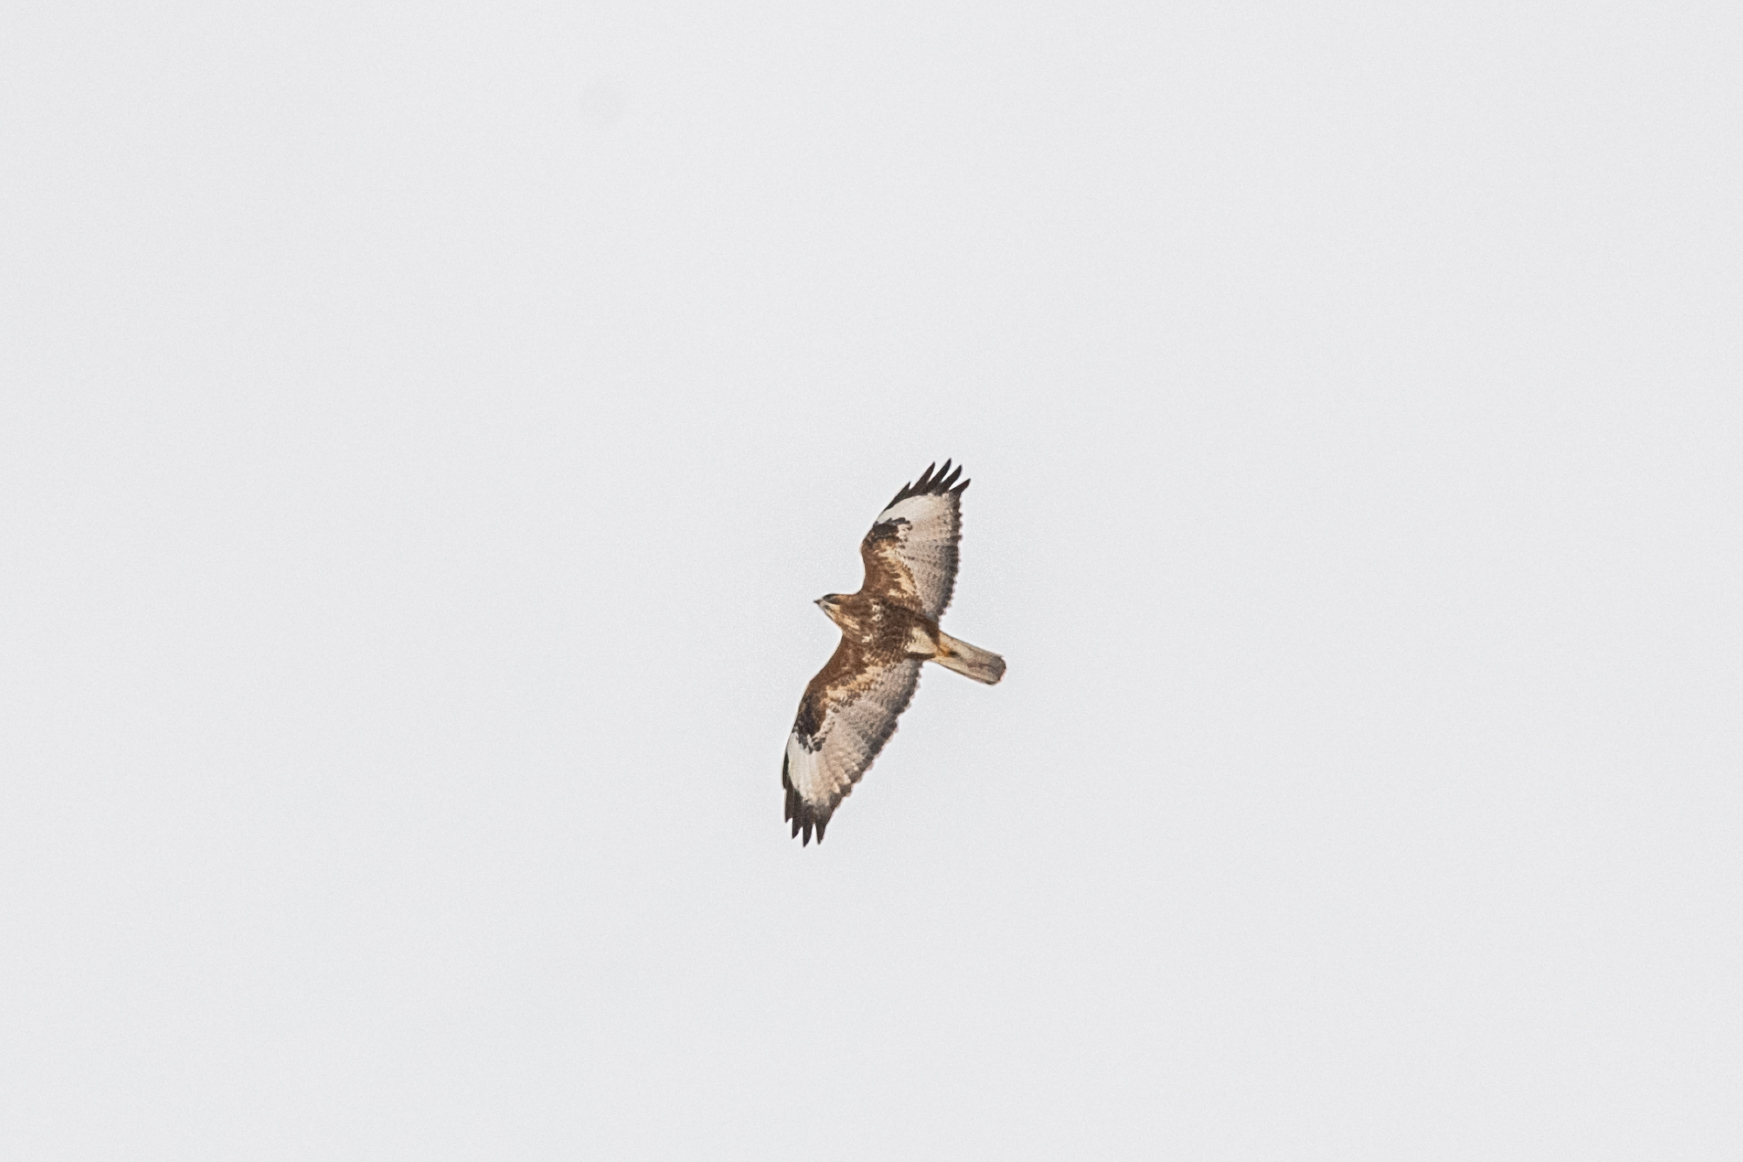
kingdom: Animalia
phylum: Chordata
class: Aves
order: Accipitriformes
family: Accipitridae
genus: Buteo
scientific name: Buteo buteo
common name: Common buzzard
